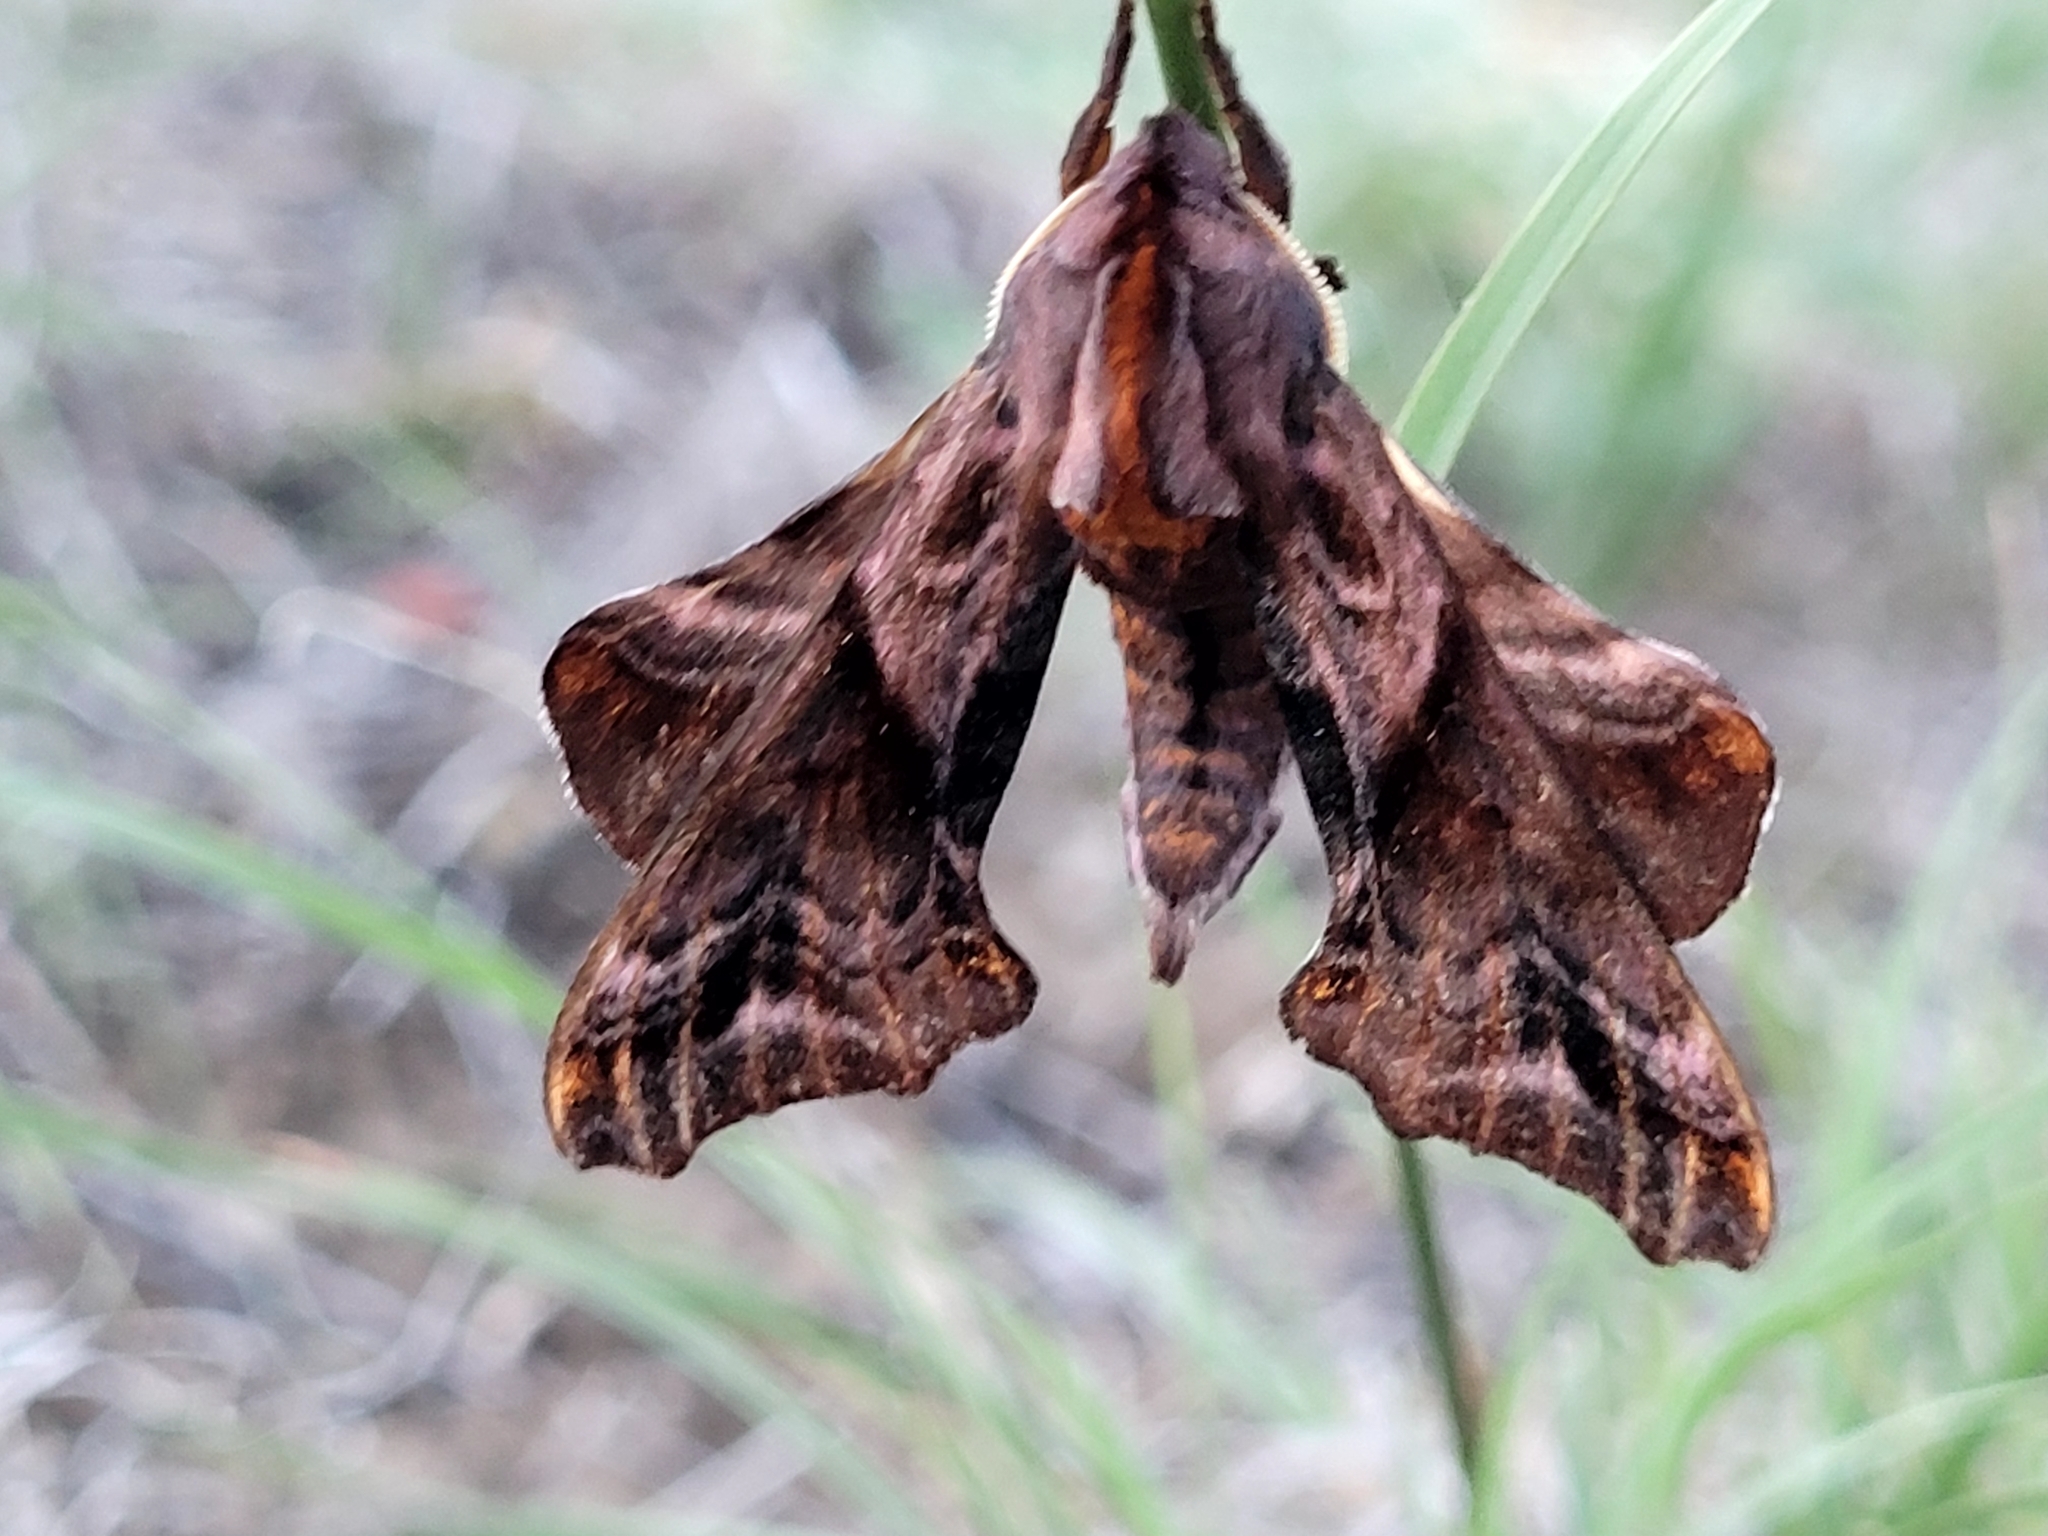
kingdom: Animalia
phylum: Arthropoda
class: Insecta
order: Lepidoptera
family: Sphingidae
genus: Paonias
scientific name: Paonias myops
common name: Small-eyed sphinx
